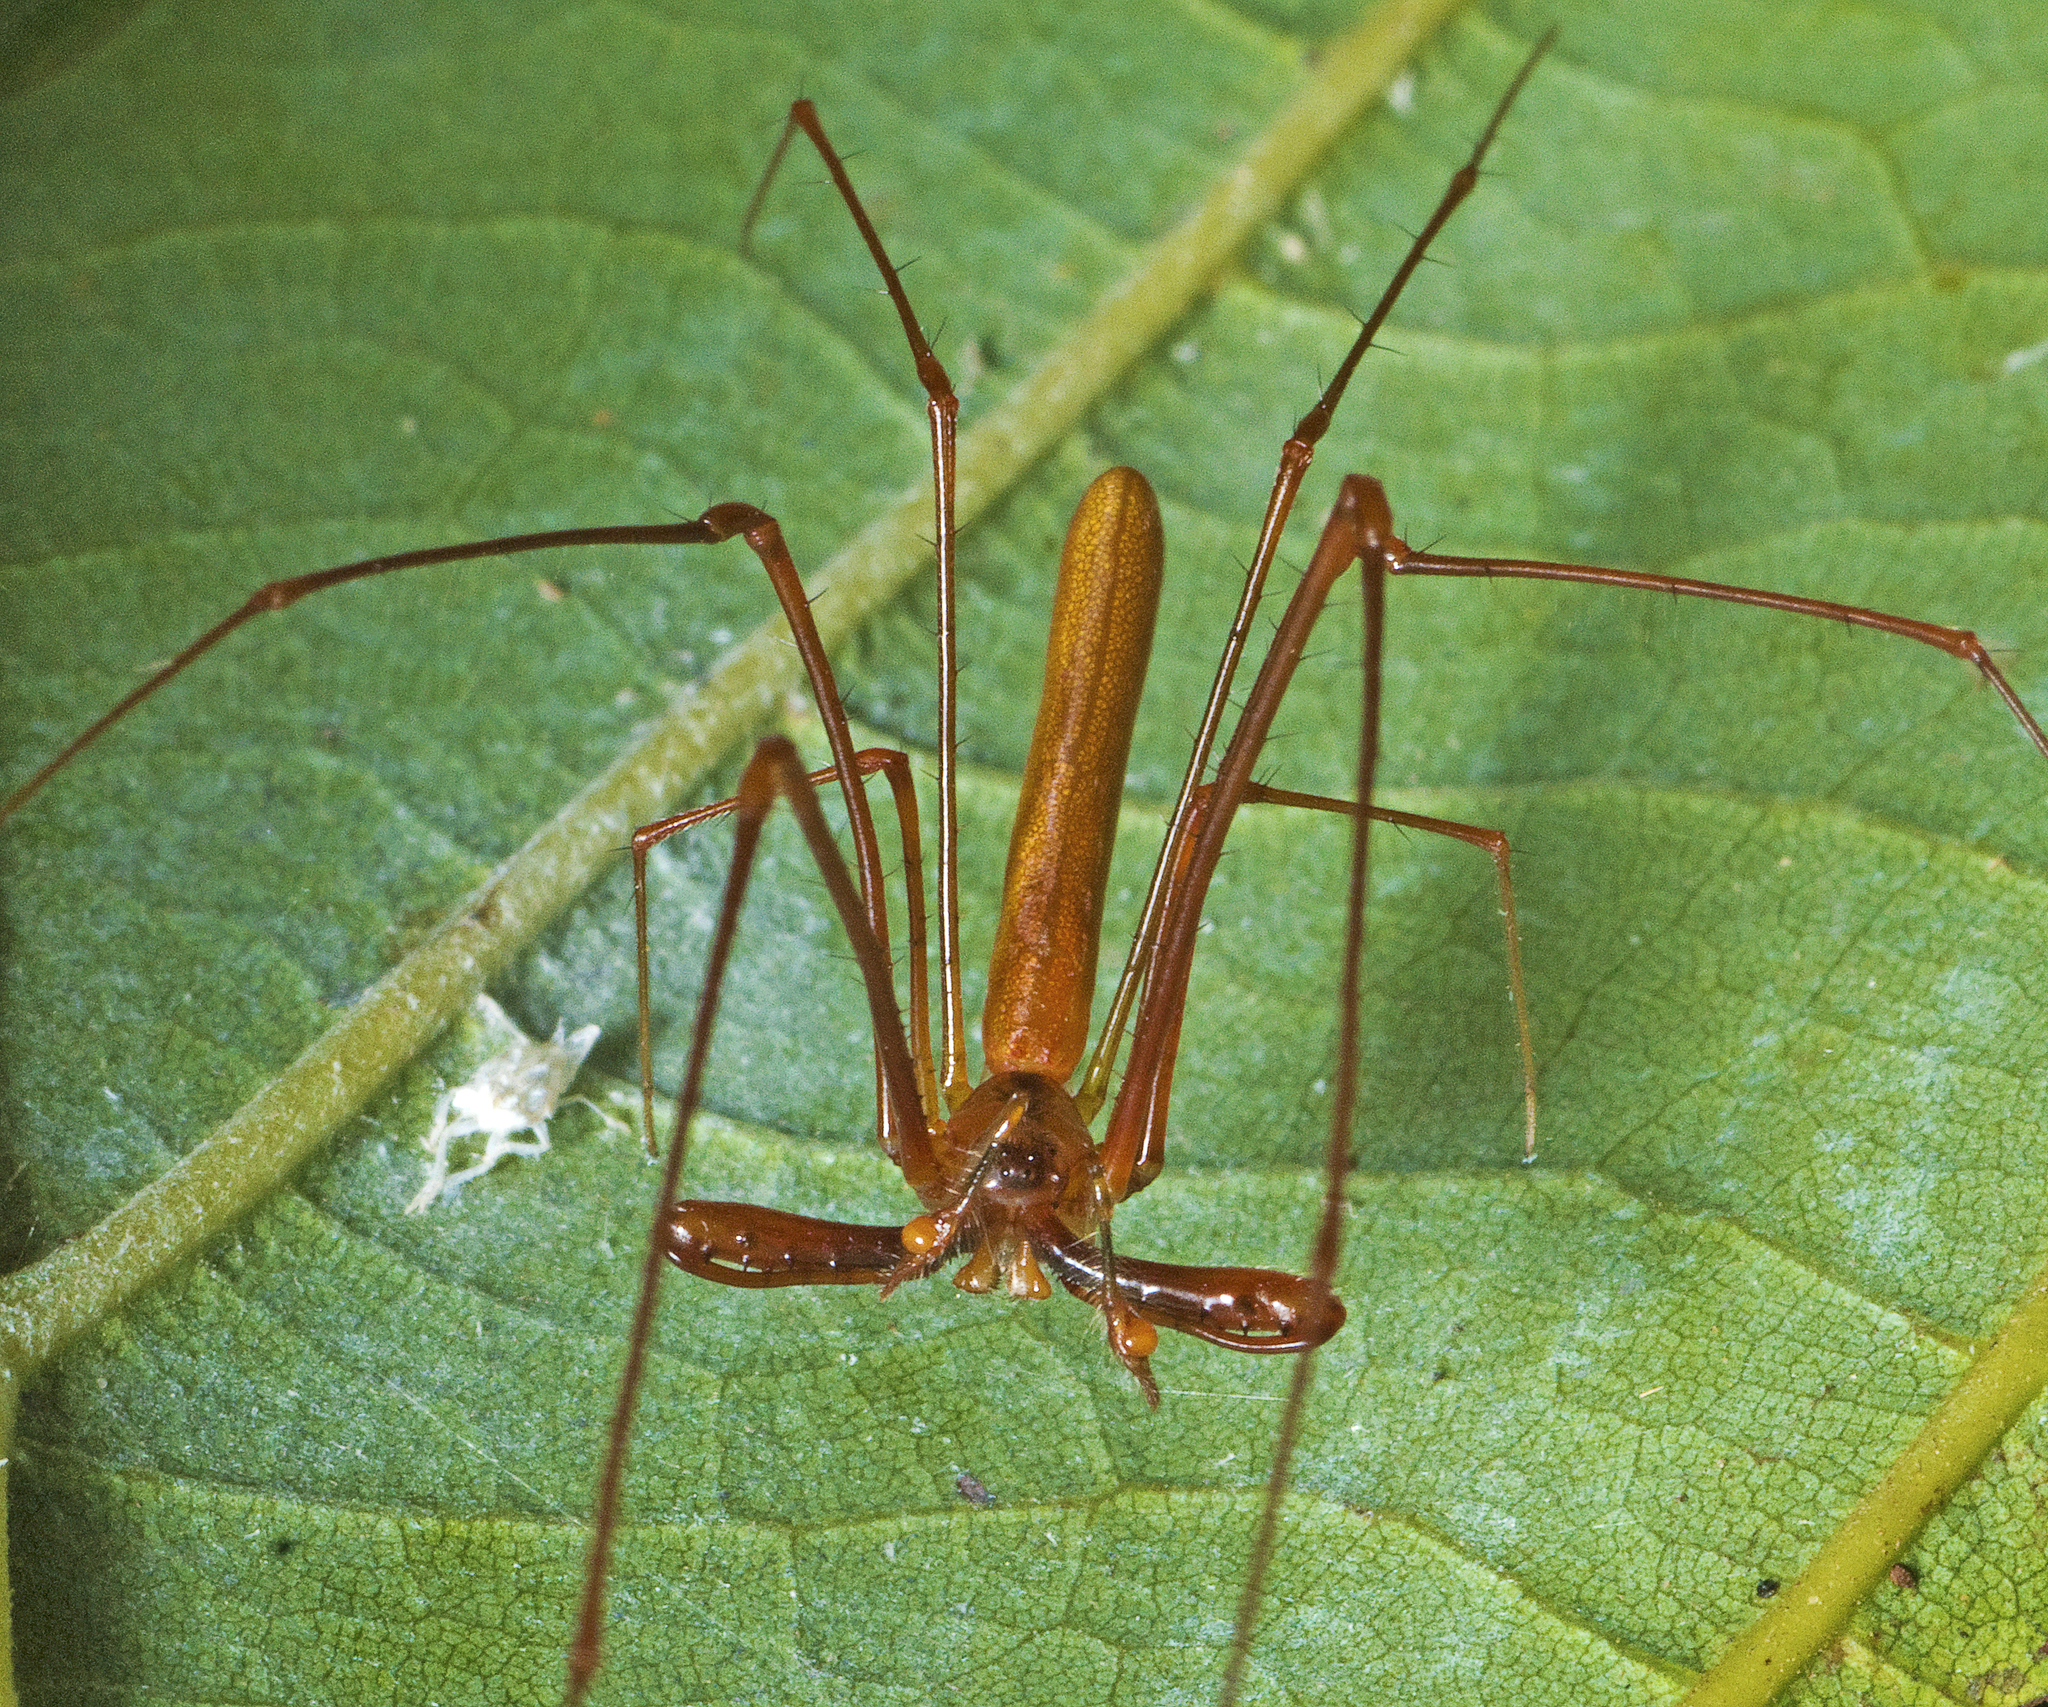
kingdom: Animalia
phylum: Arthropoda
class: Arachnida
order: Araneae
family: Tetragnathidae
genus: Tetragnatha
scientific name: Tetragnatha rubriventris
